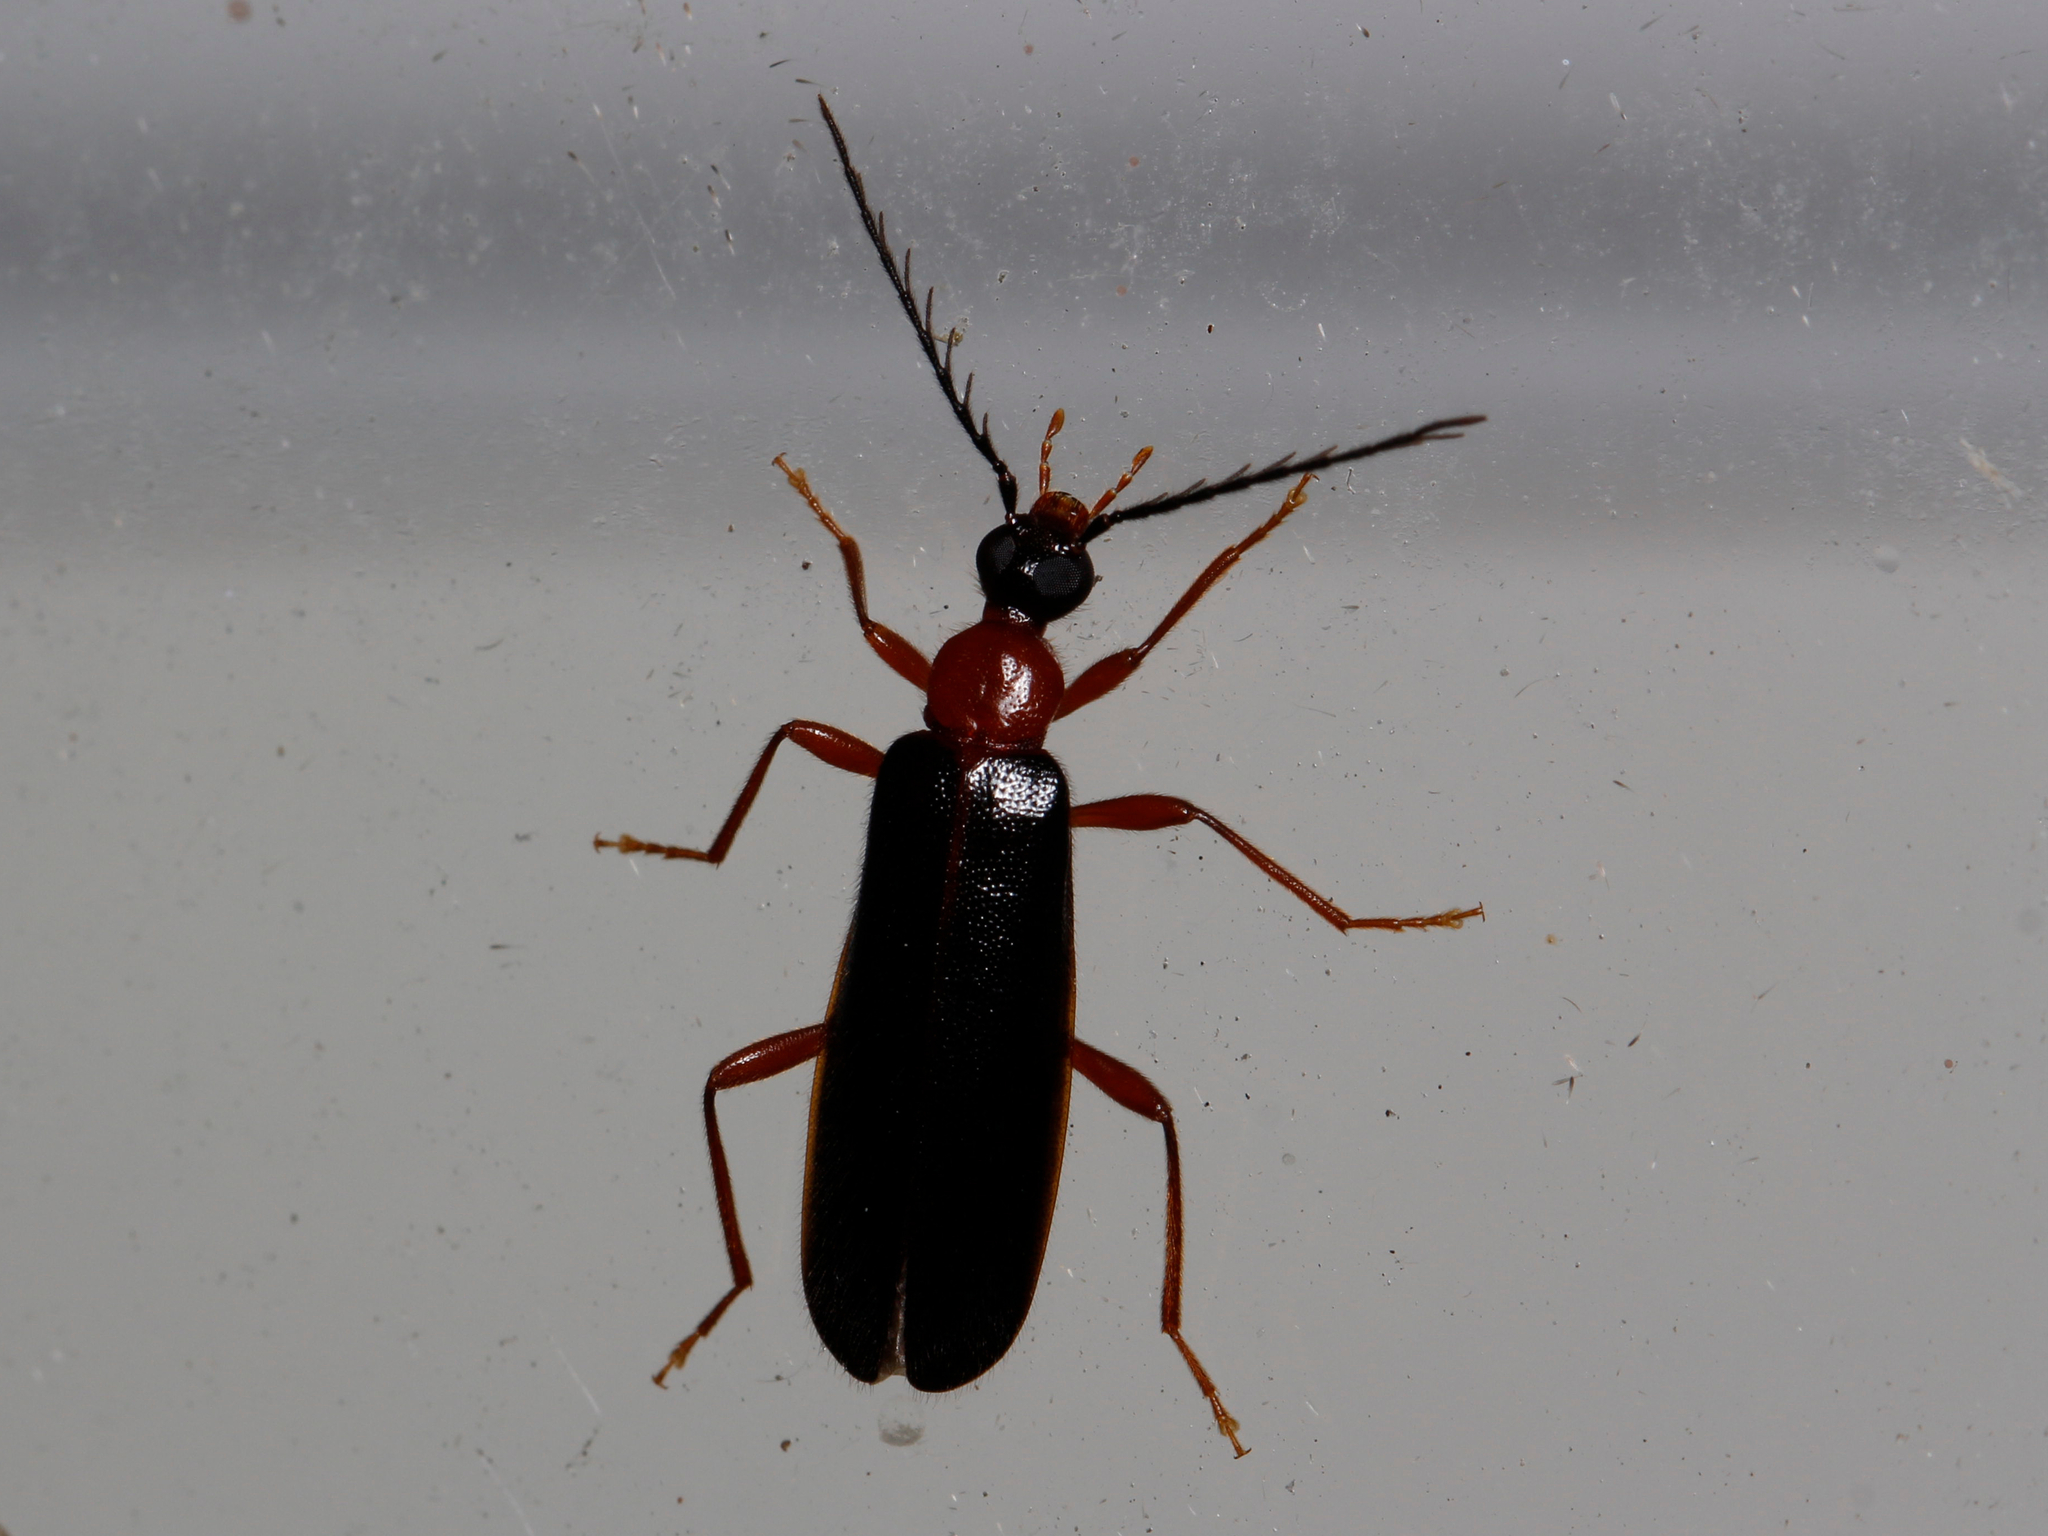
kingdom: Animalia
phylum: Arthropoda
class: Insecta
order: Coleoptera
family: Pyrochroidae
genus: Dendroides
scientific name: Dendroides canadensis
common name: Canada fire-colored beetle
